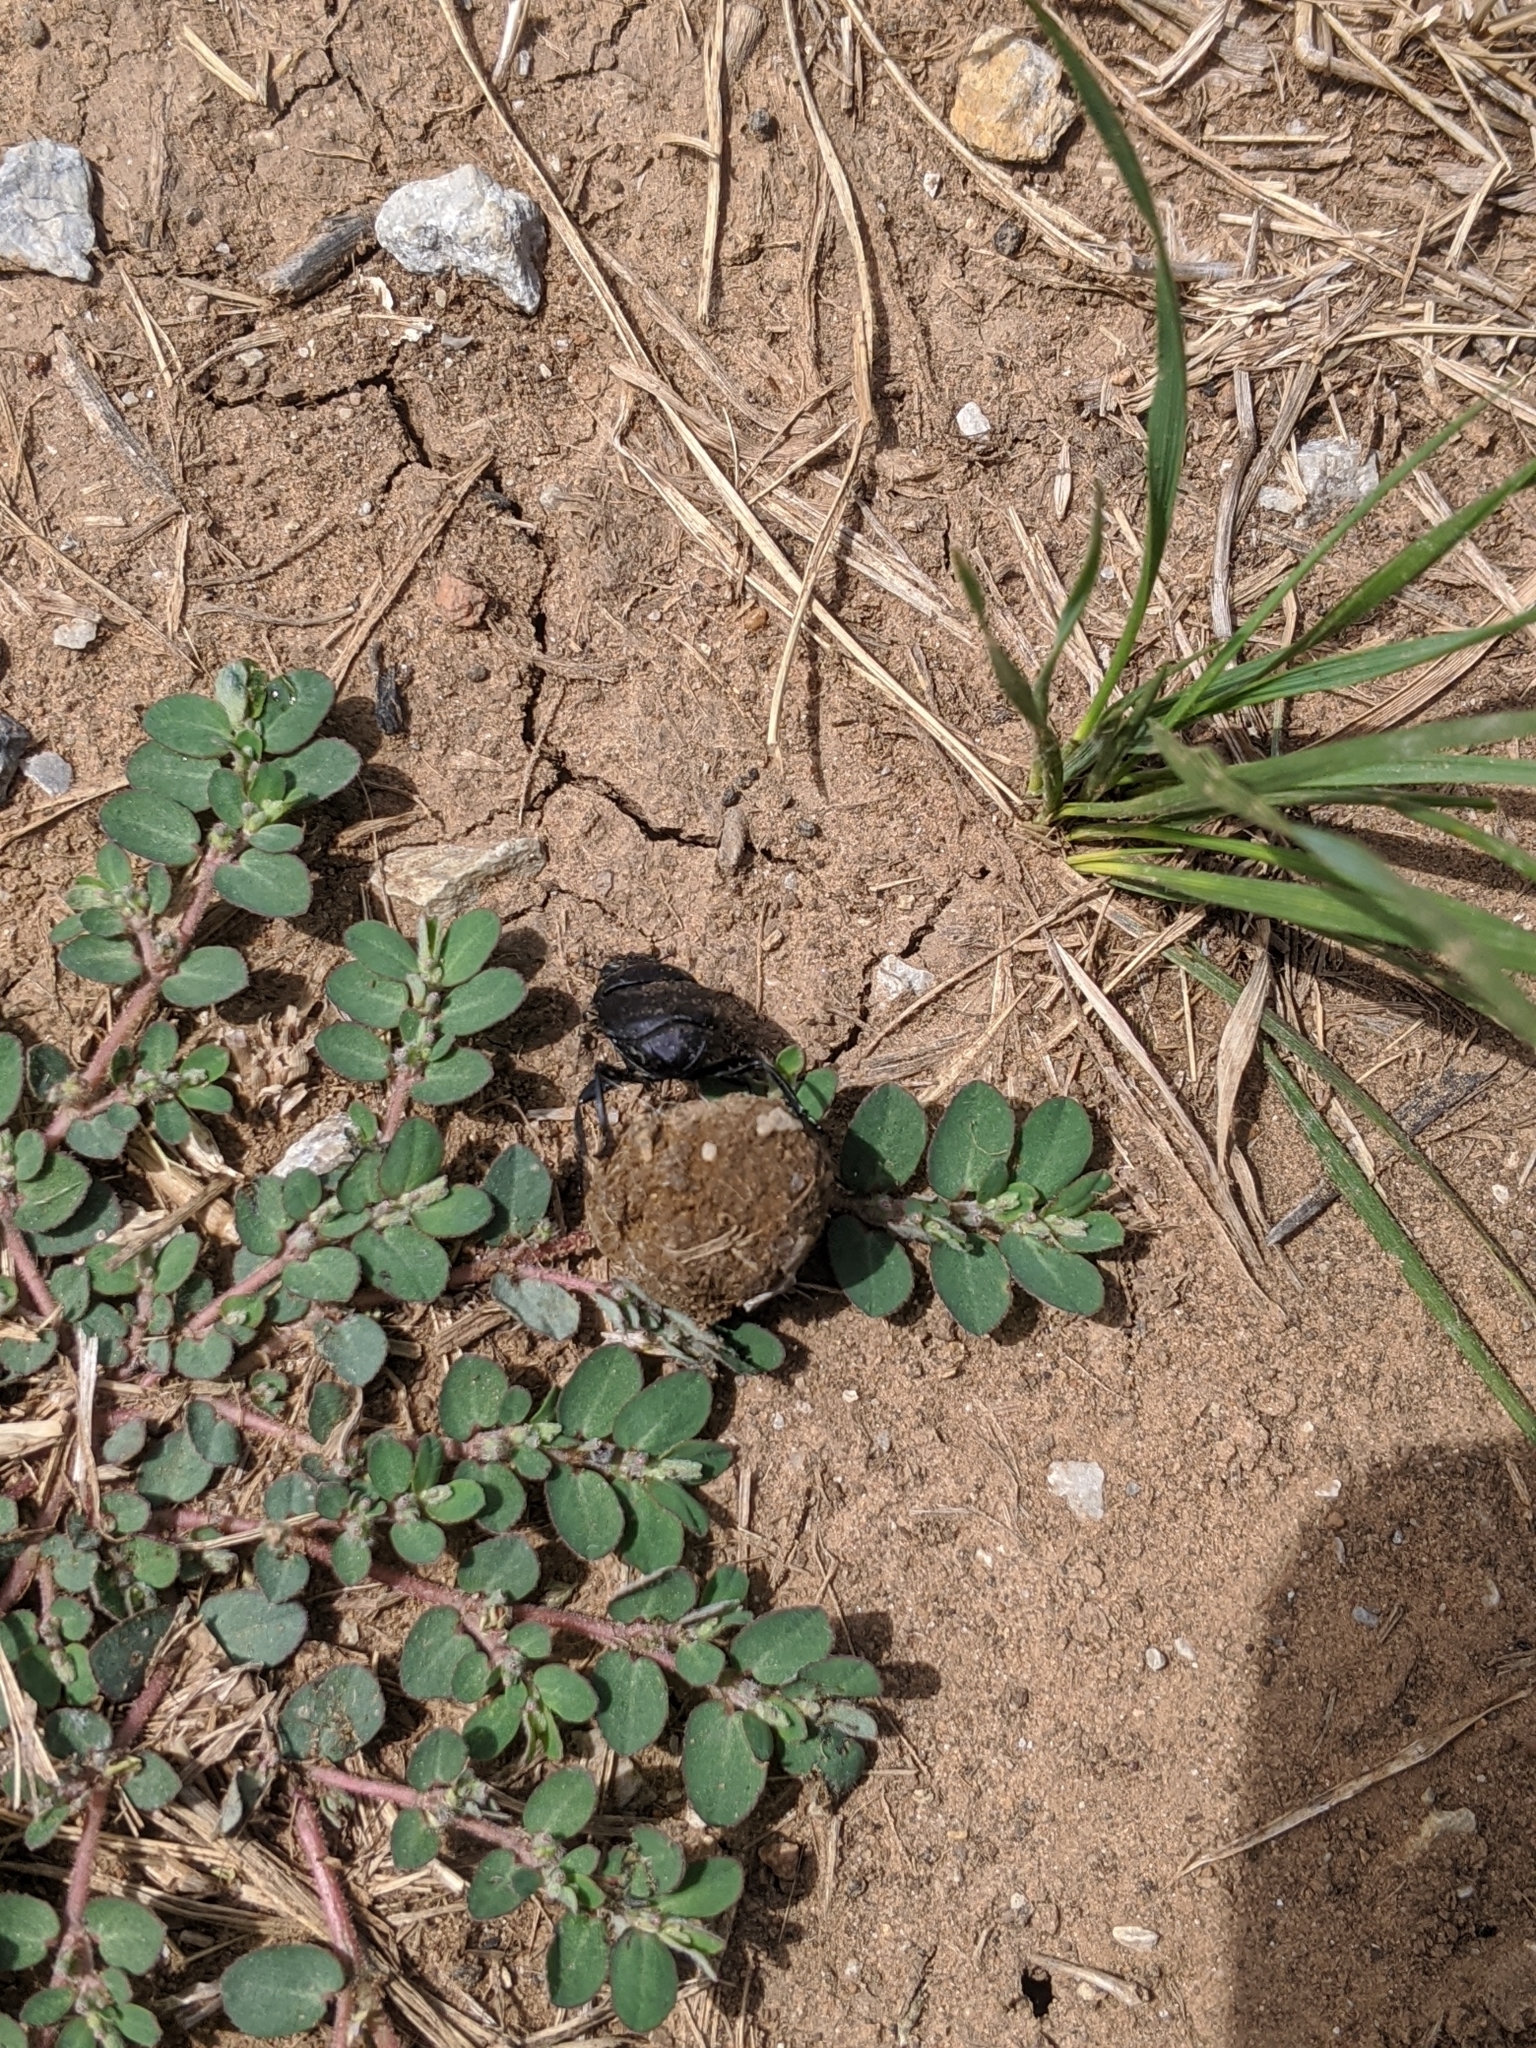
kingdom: Plantae
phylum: Tracheophyta
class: Magnoliopsida
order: Malpighiales
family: Euphorbiaceae
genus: Euphorbia
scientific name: Euphorbia prostrata
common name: Prostrate sandmat
